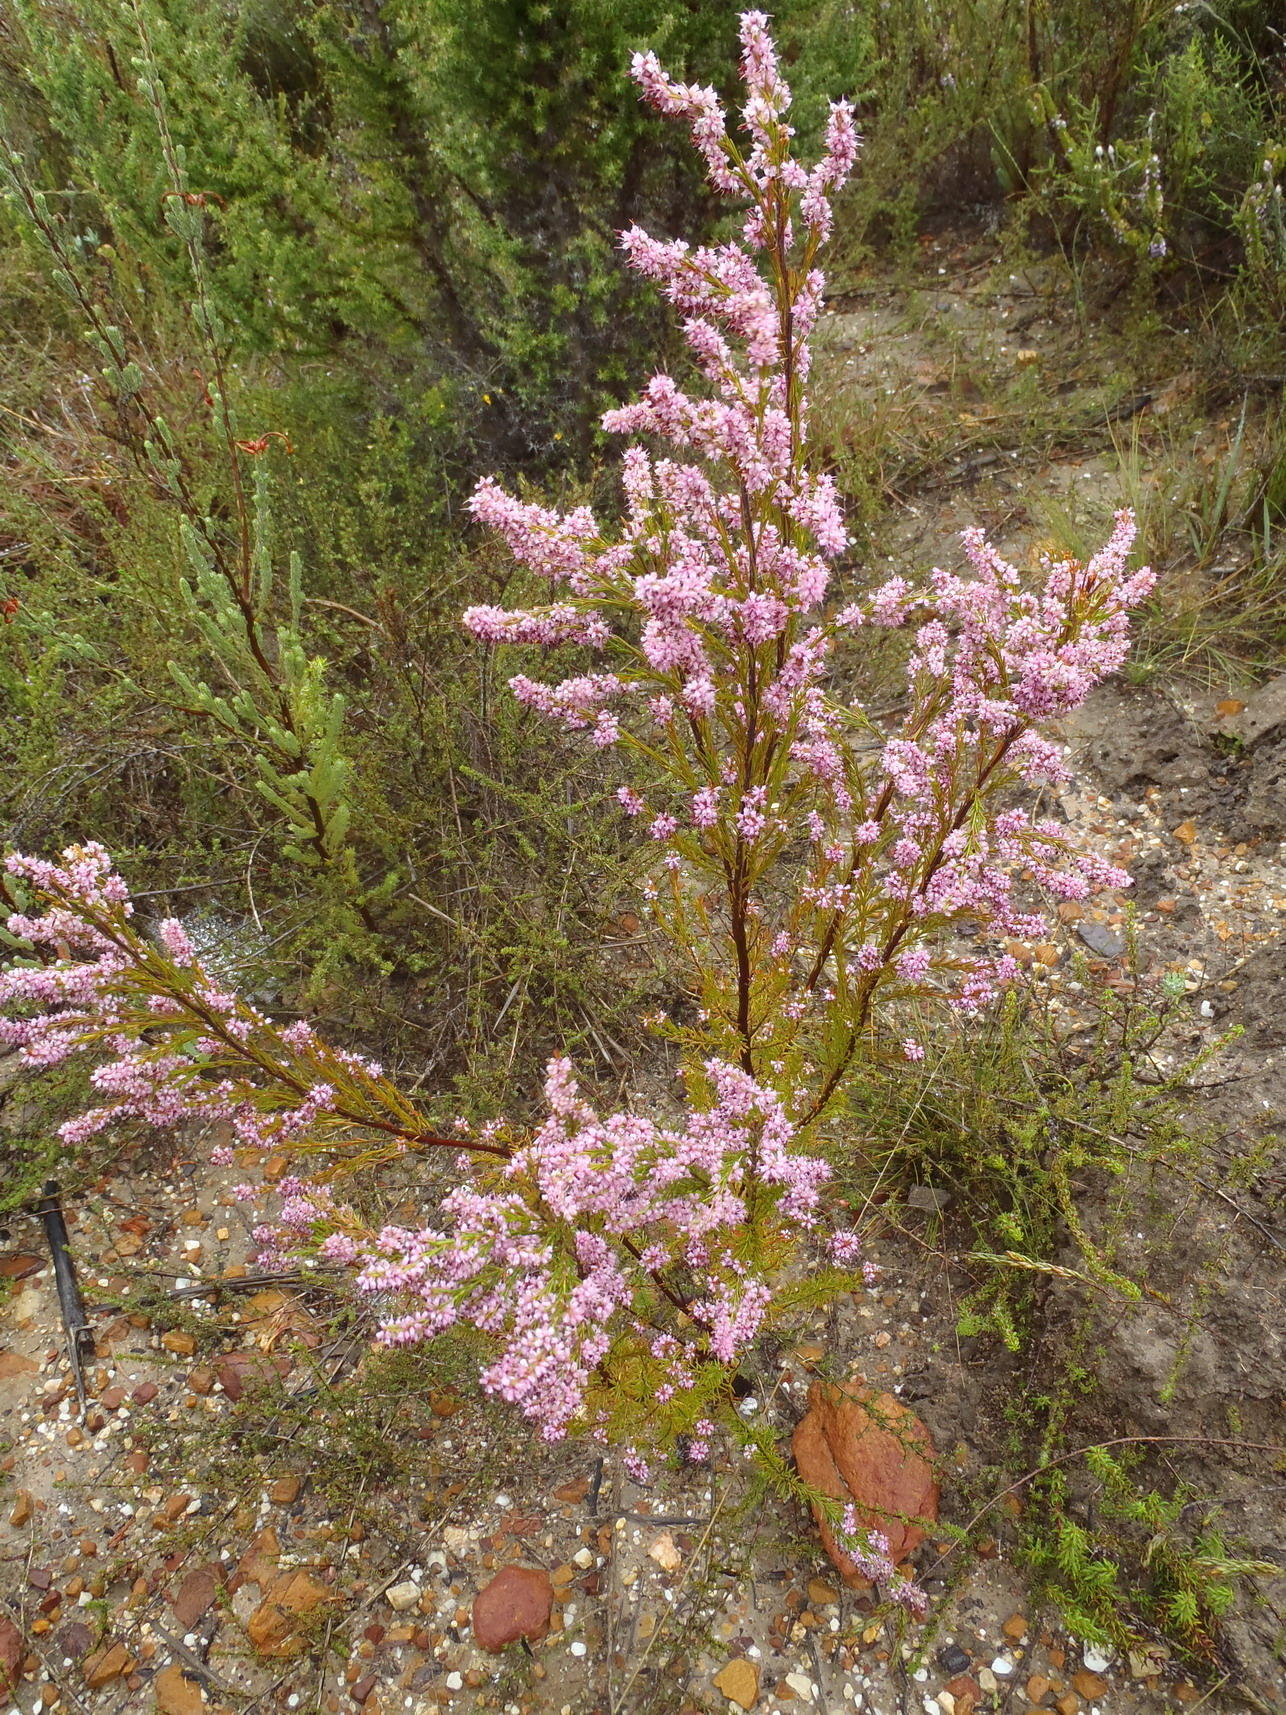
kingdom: Plantae
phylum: Tracheophyta
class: Magnoliopsida
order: Ericales
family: Ericaceae
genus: Erica
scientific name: Erica rosacea
